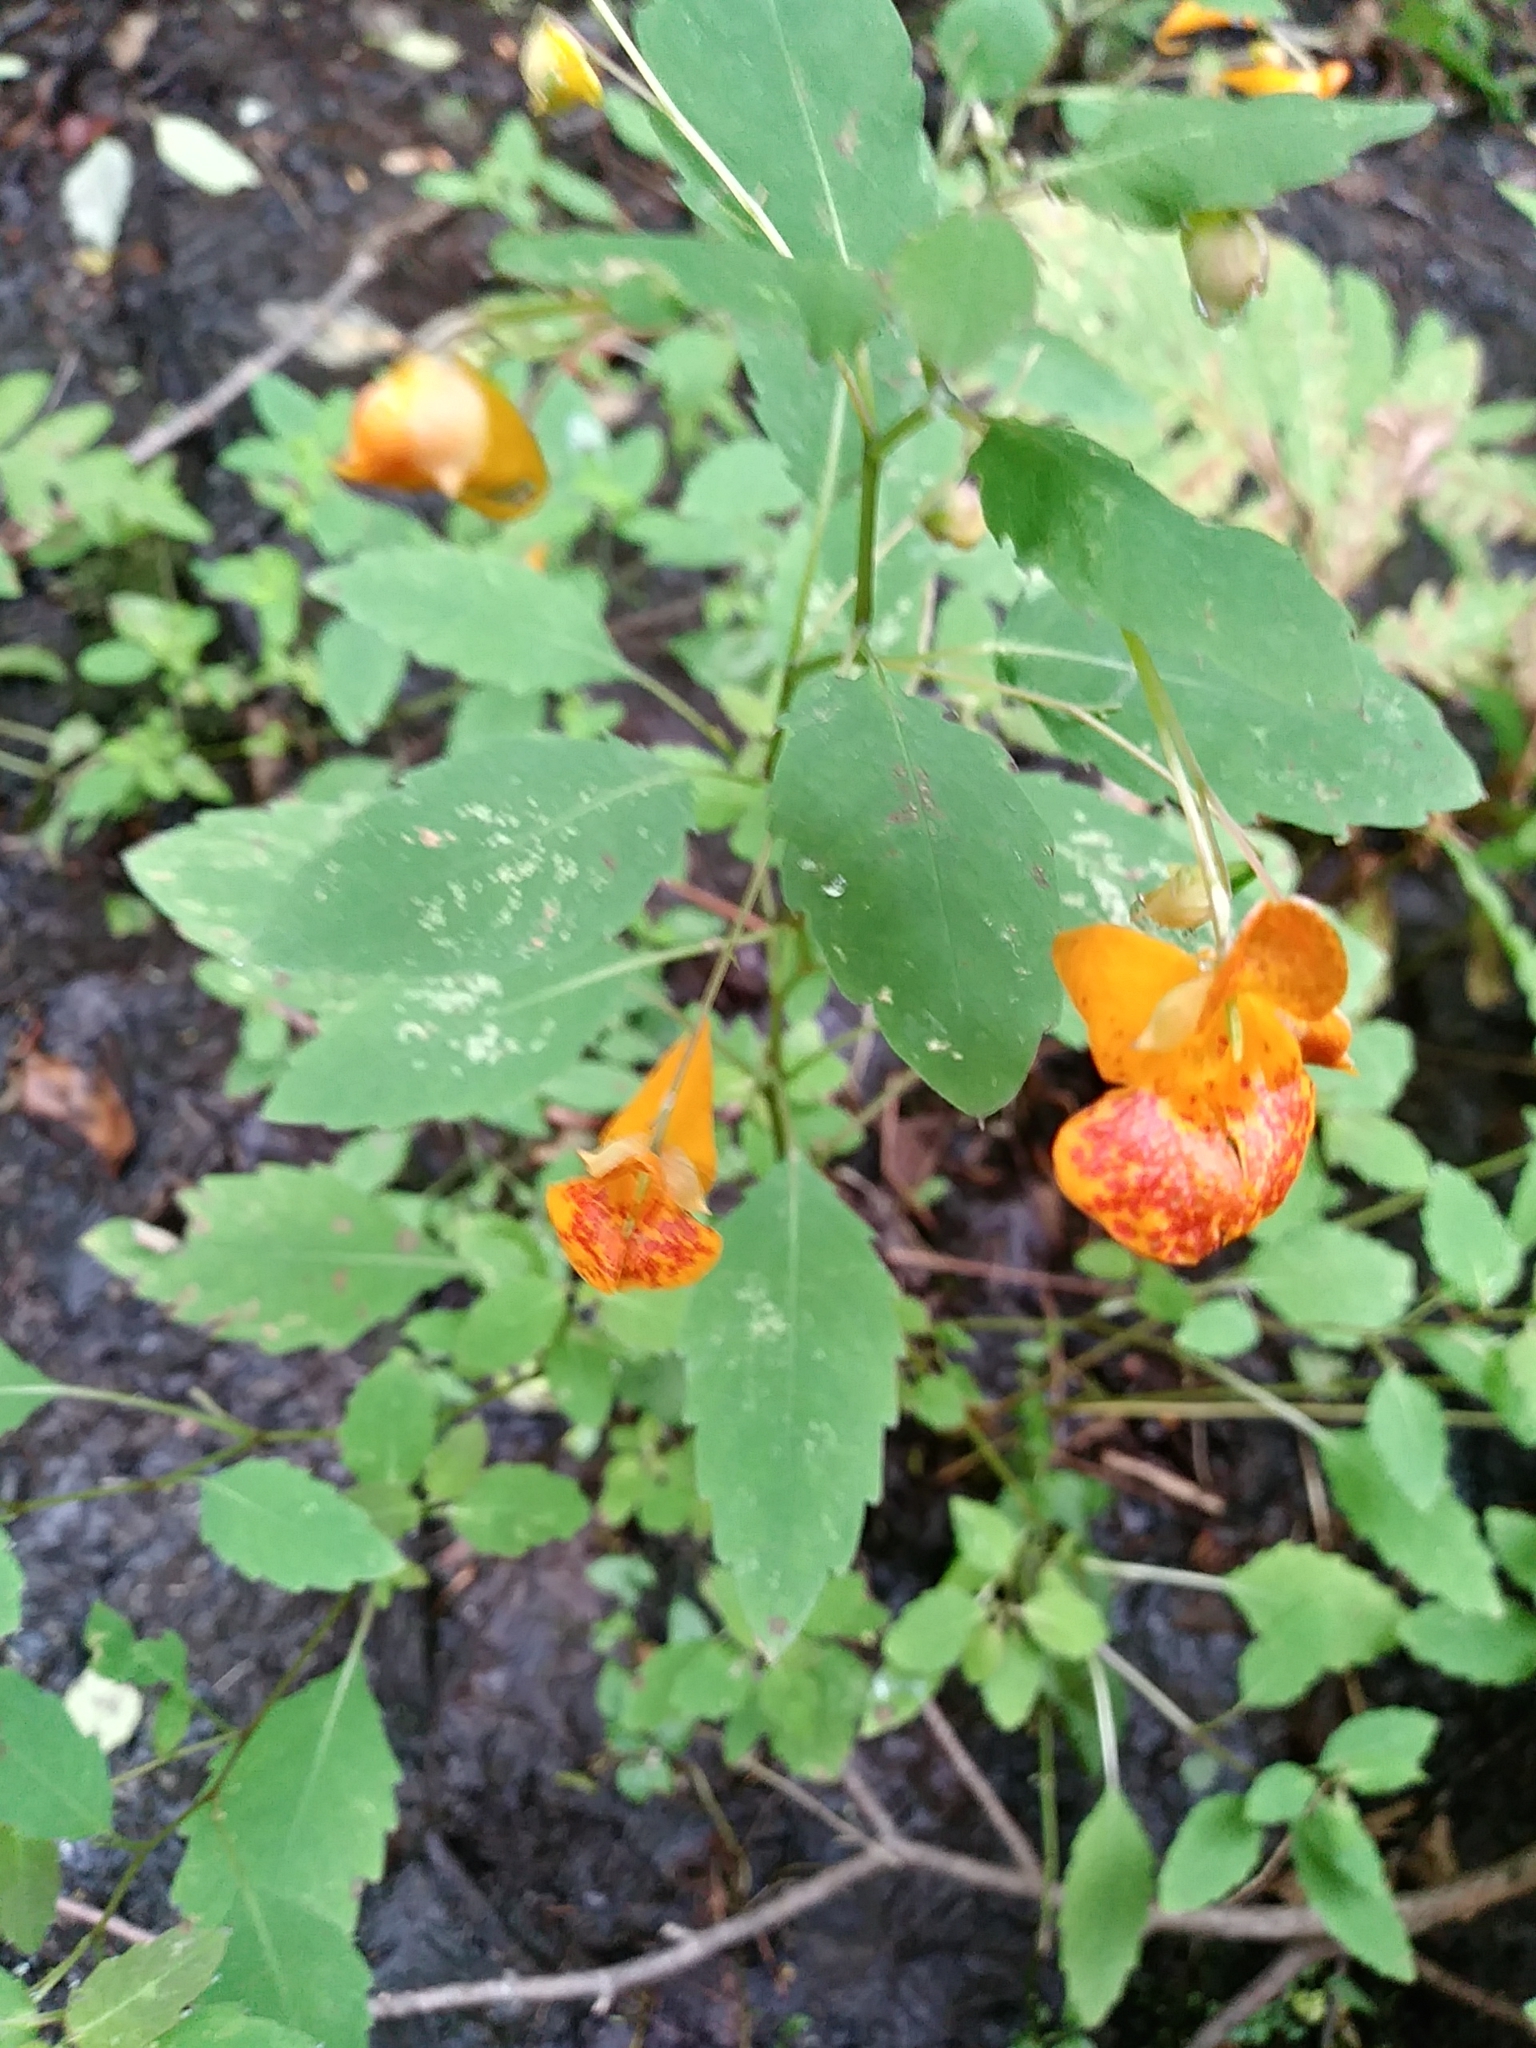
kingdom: Plantae
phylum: Tracheophyta
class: Magnoliopsida
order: Ericales
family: Balsaminaceae
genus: Impatiens
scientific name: Impatiens capensis
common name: Orange balsam
